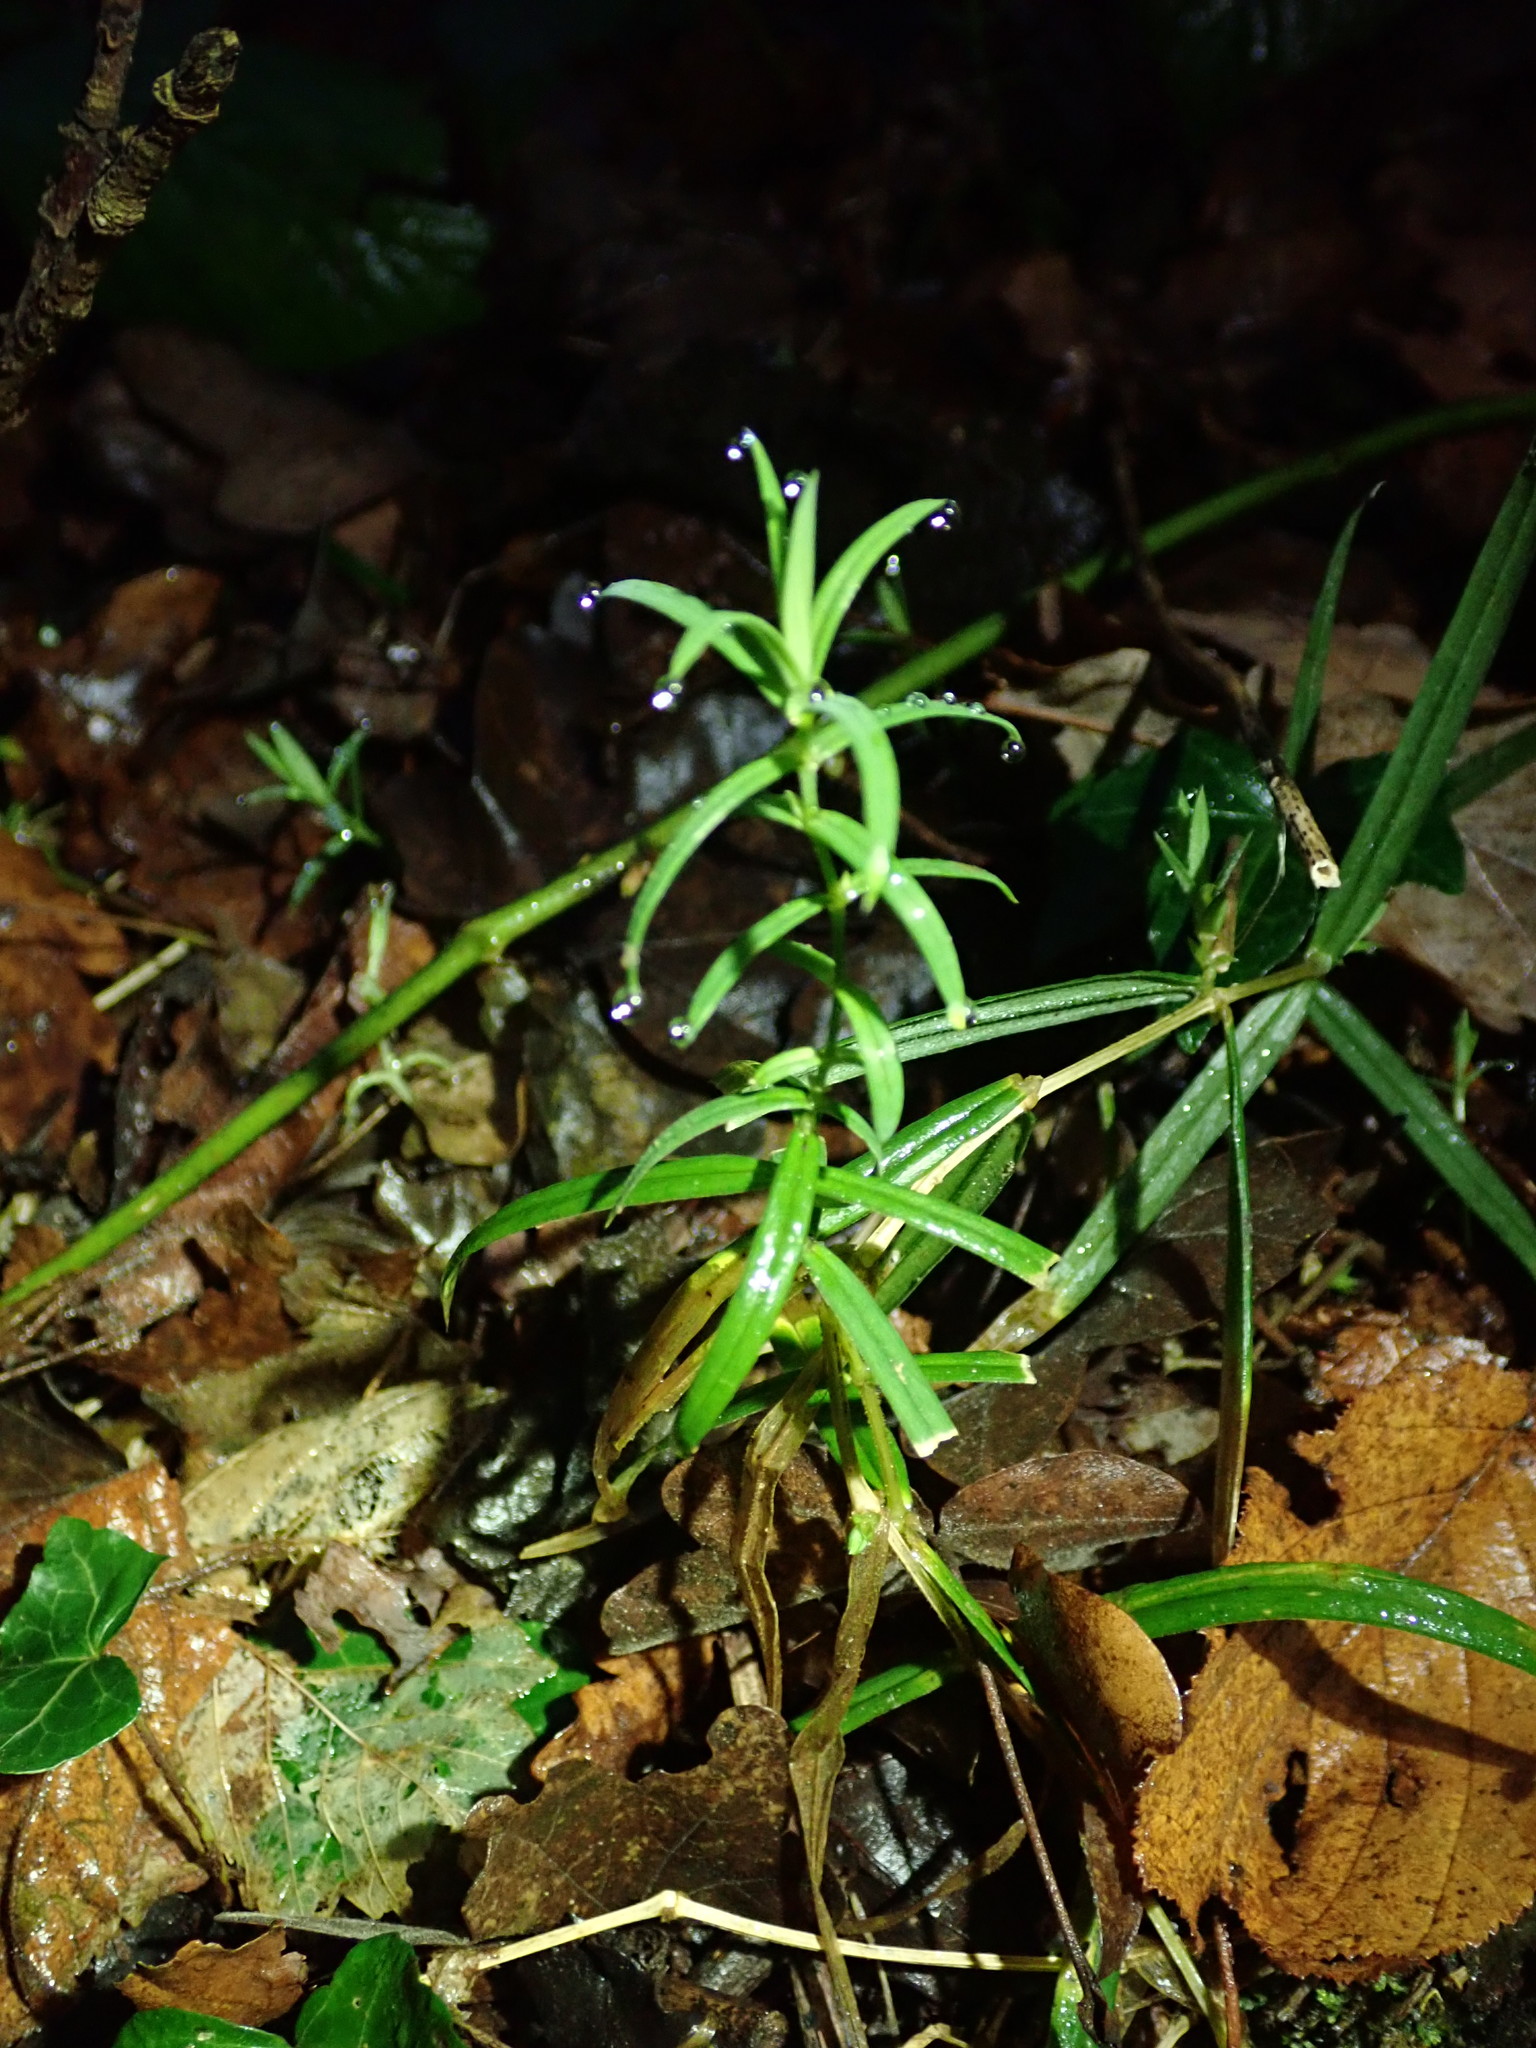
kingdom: Plantae
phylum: Tracheophyta
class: Magnoliopsida
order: Caryophyllales
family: Caryophyllaceae
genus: Rabelera
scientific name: Rabelera holostea
